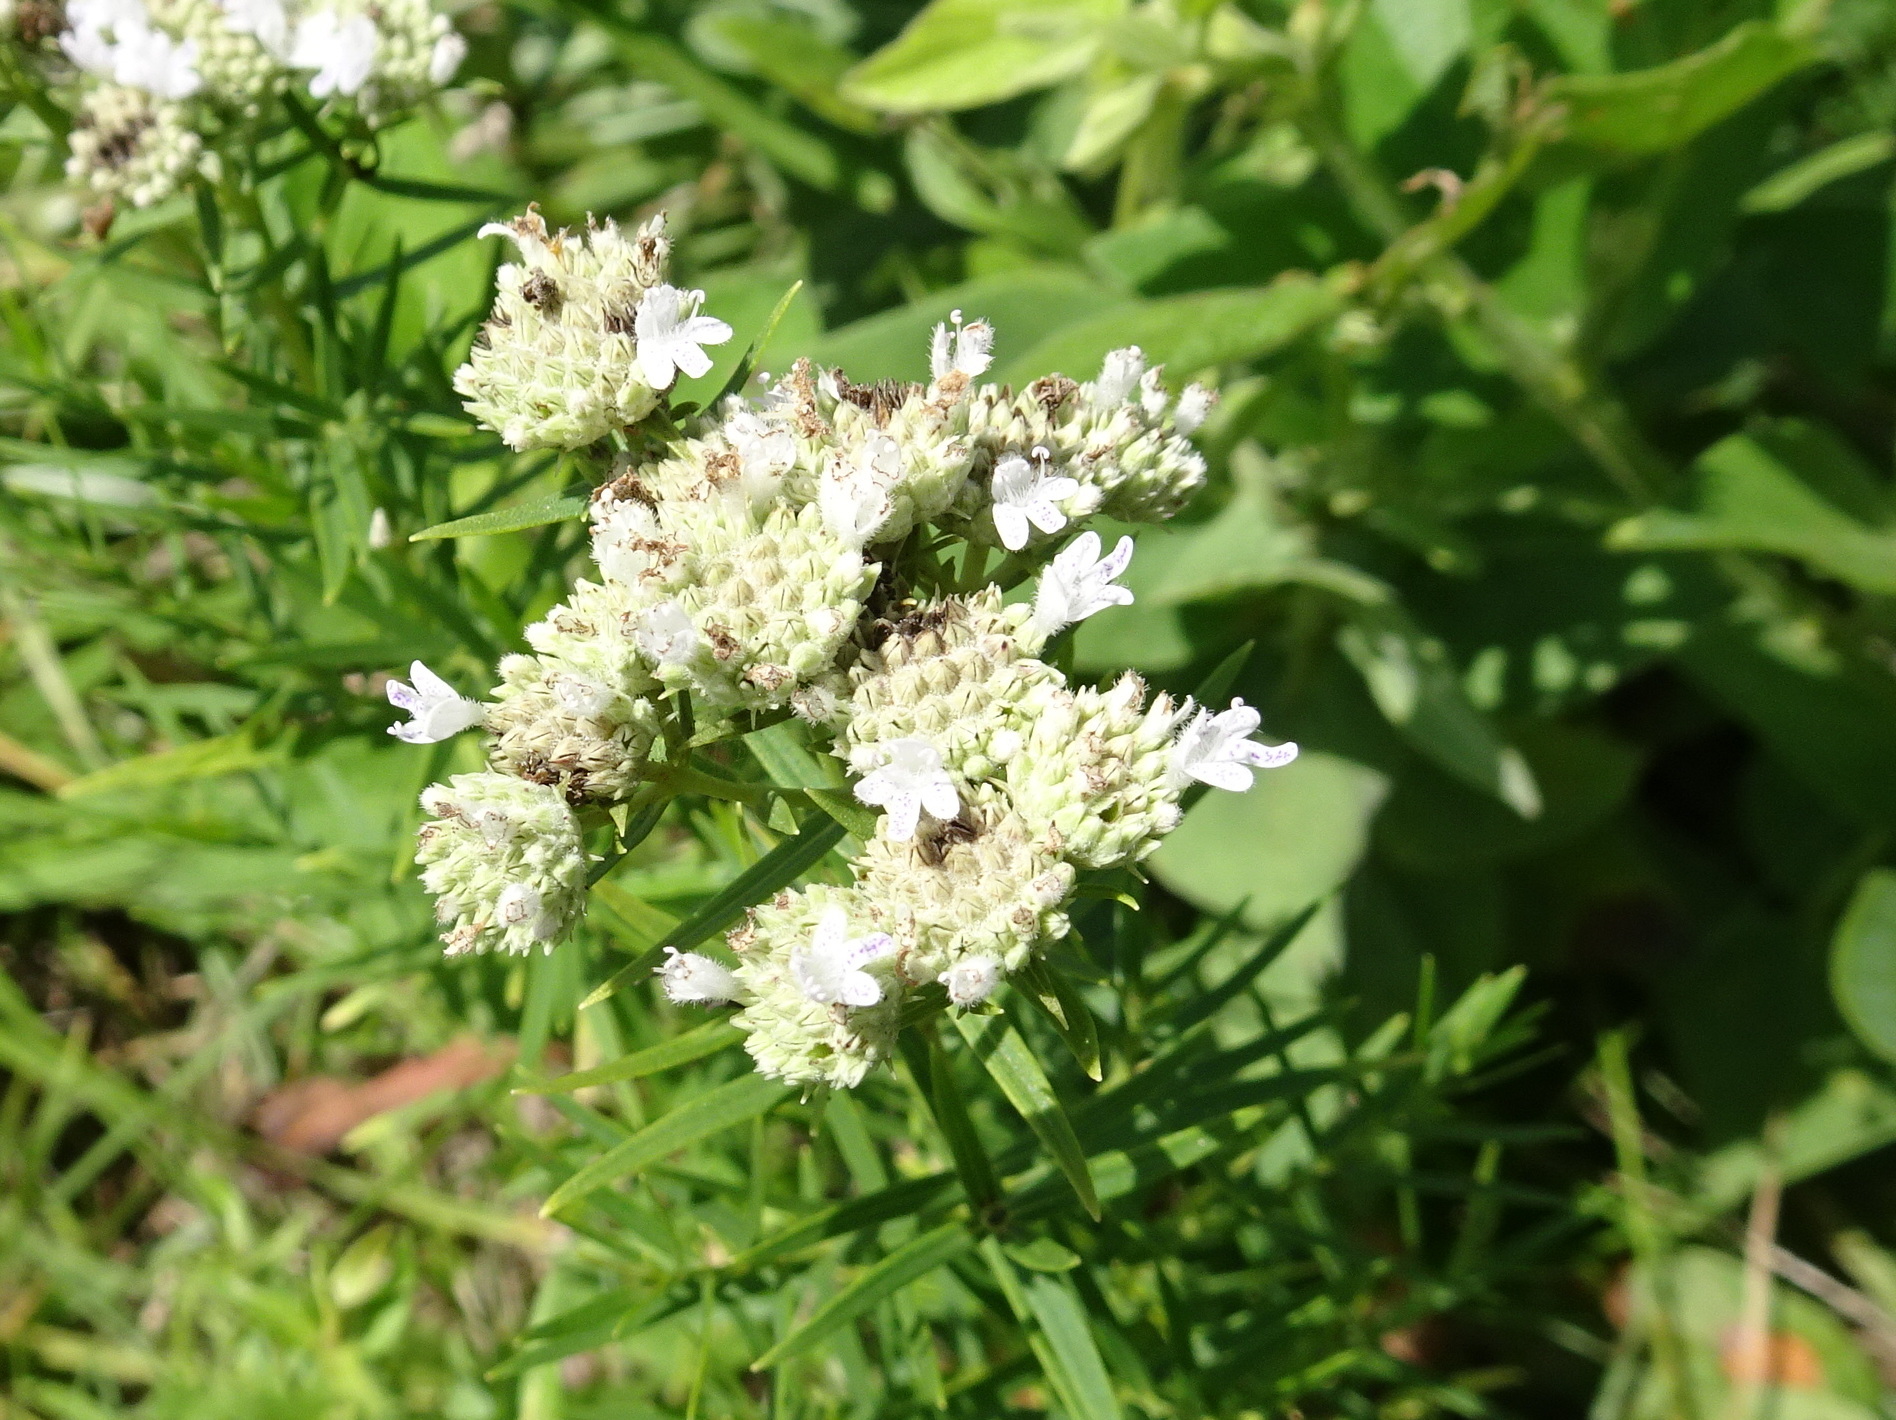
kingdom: Plantae
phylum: Tracheophyta
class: Magnoliopsida
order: Lamiales
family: Lamiaceae
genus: Pycnanthemum
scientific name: Pycnanthemum tenuifolium
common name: Narrow-leaf mountain-mint
